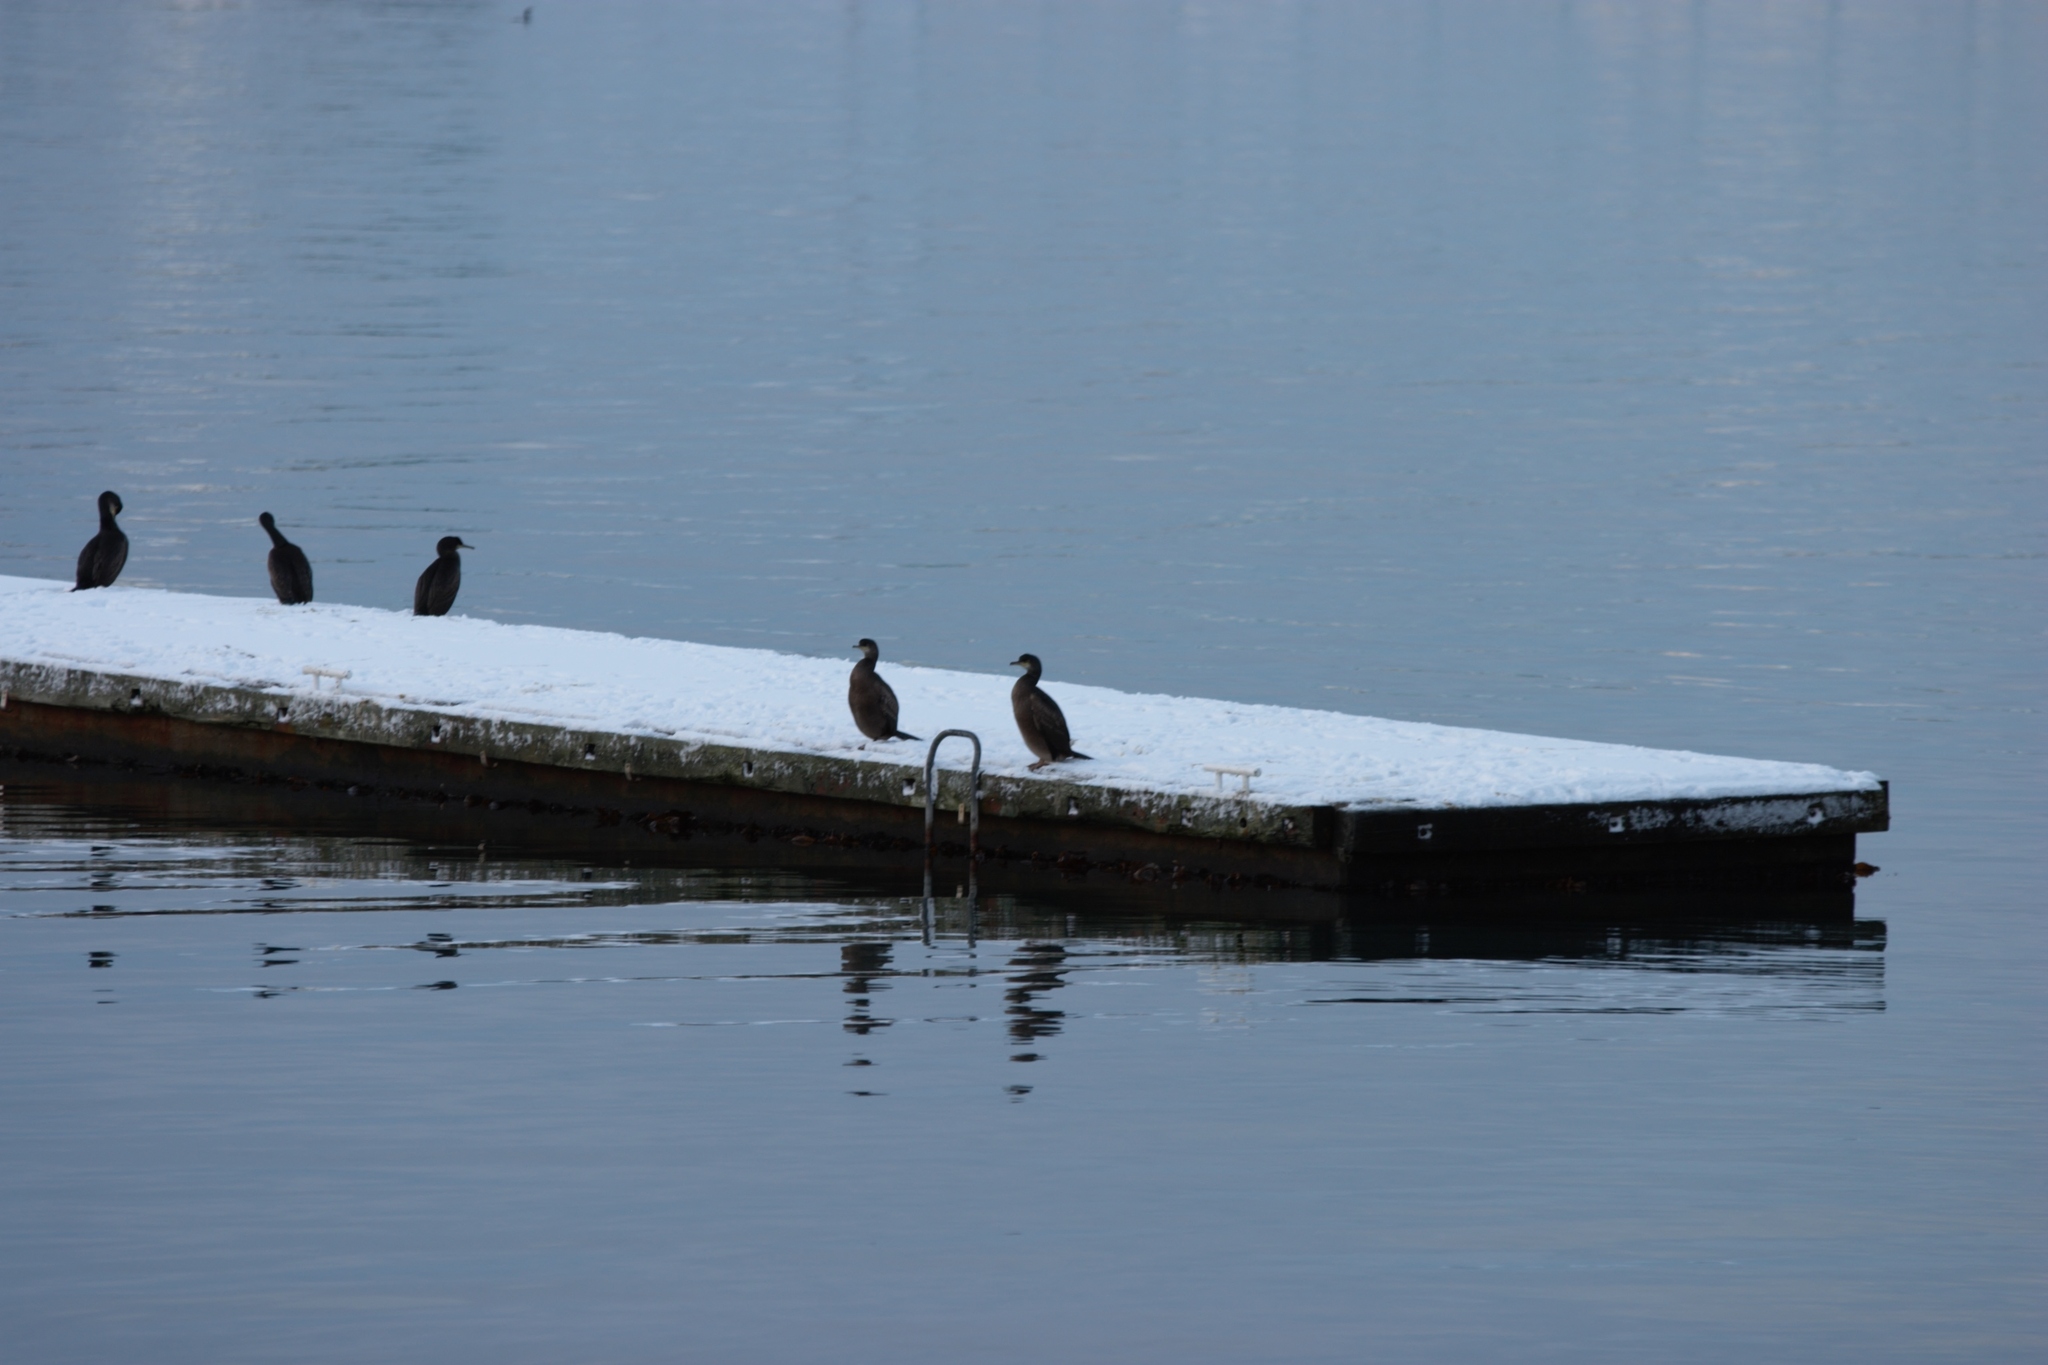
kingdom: Animalia
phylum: Chordata
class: Aves
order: Suliformes
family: Phalacrocoracidae
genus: Phalacrocorax
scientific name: Phalacrocorax aristotelis
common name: European shag
